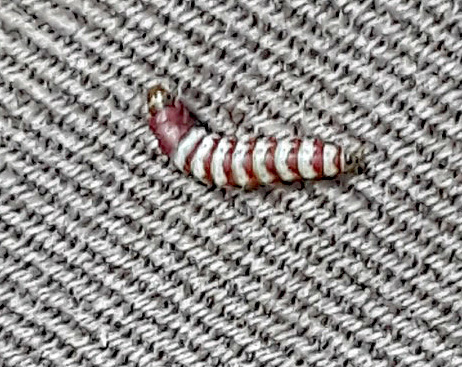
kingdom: Animalia
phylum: Arthropoda
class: Insecta
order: Lepidoptera
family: Gelechiidae
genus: Arogalea
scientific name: Arogalea cristifasciella
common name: White stripe-backed moth
